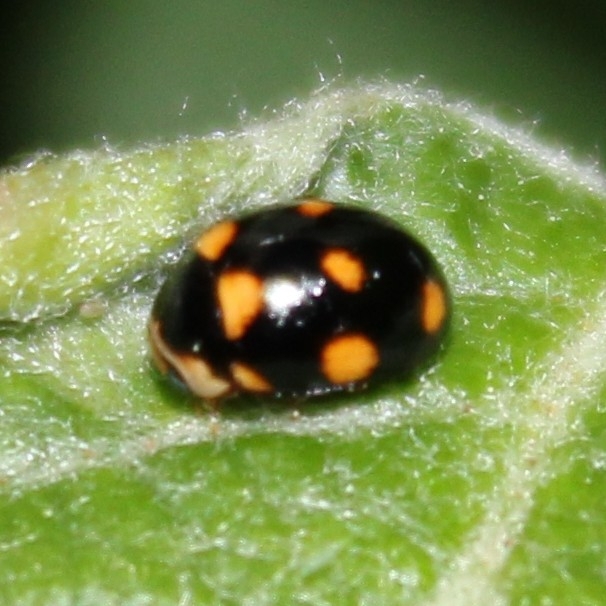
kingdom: Animalia
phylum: Arthropoda
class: Insecta
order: Coleoptera
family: Coccinellidae
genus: Brachiacantha
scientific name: Brachiacantha ursina
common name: Ursine spurleg lady beetle
